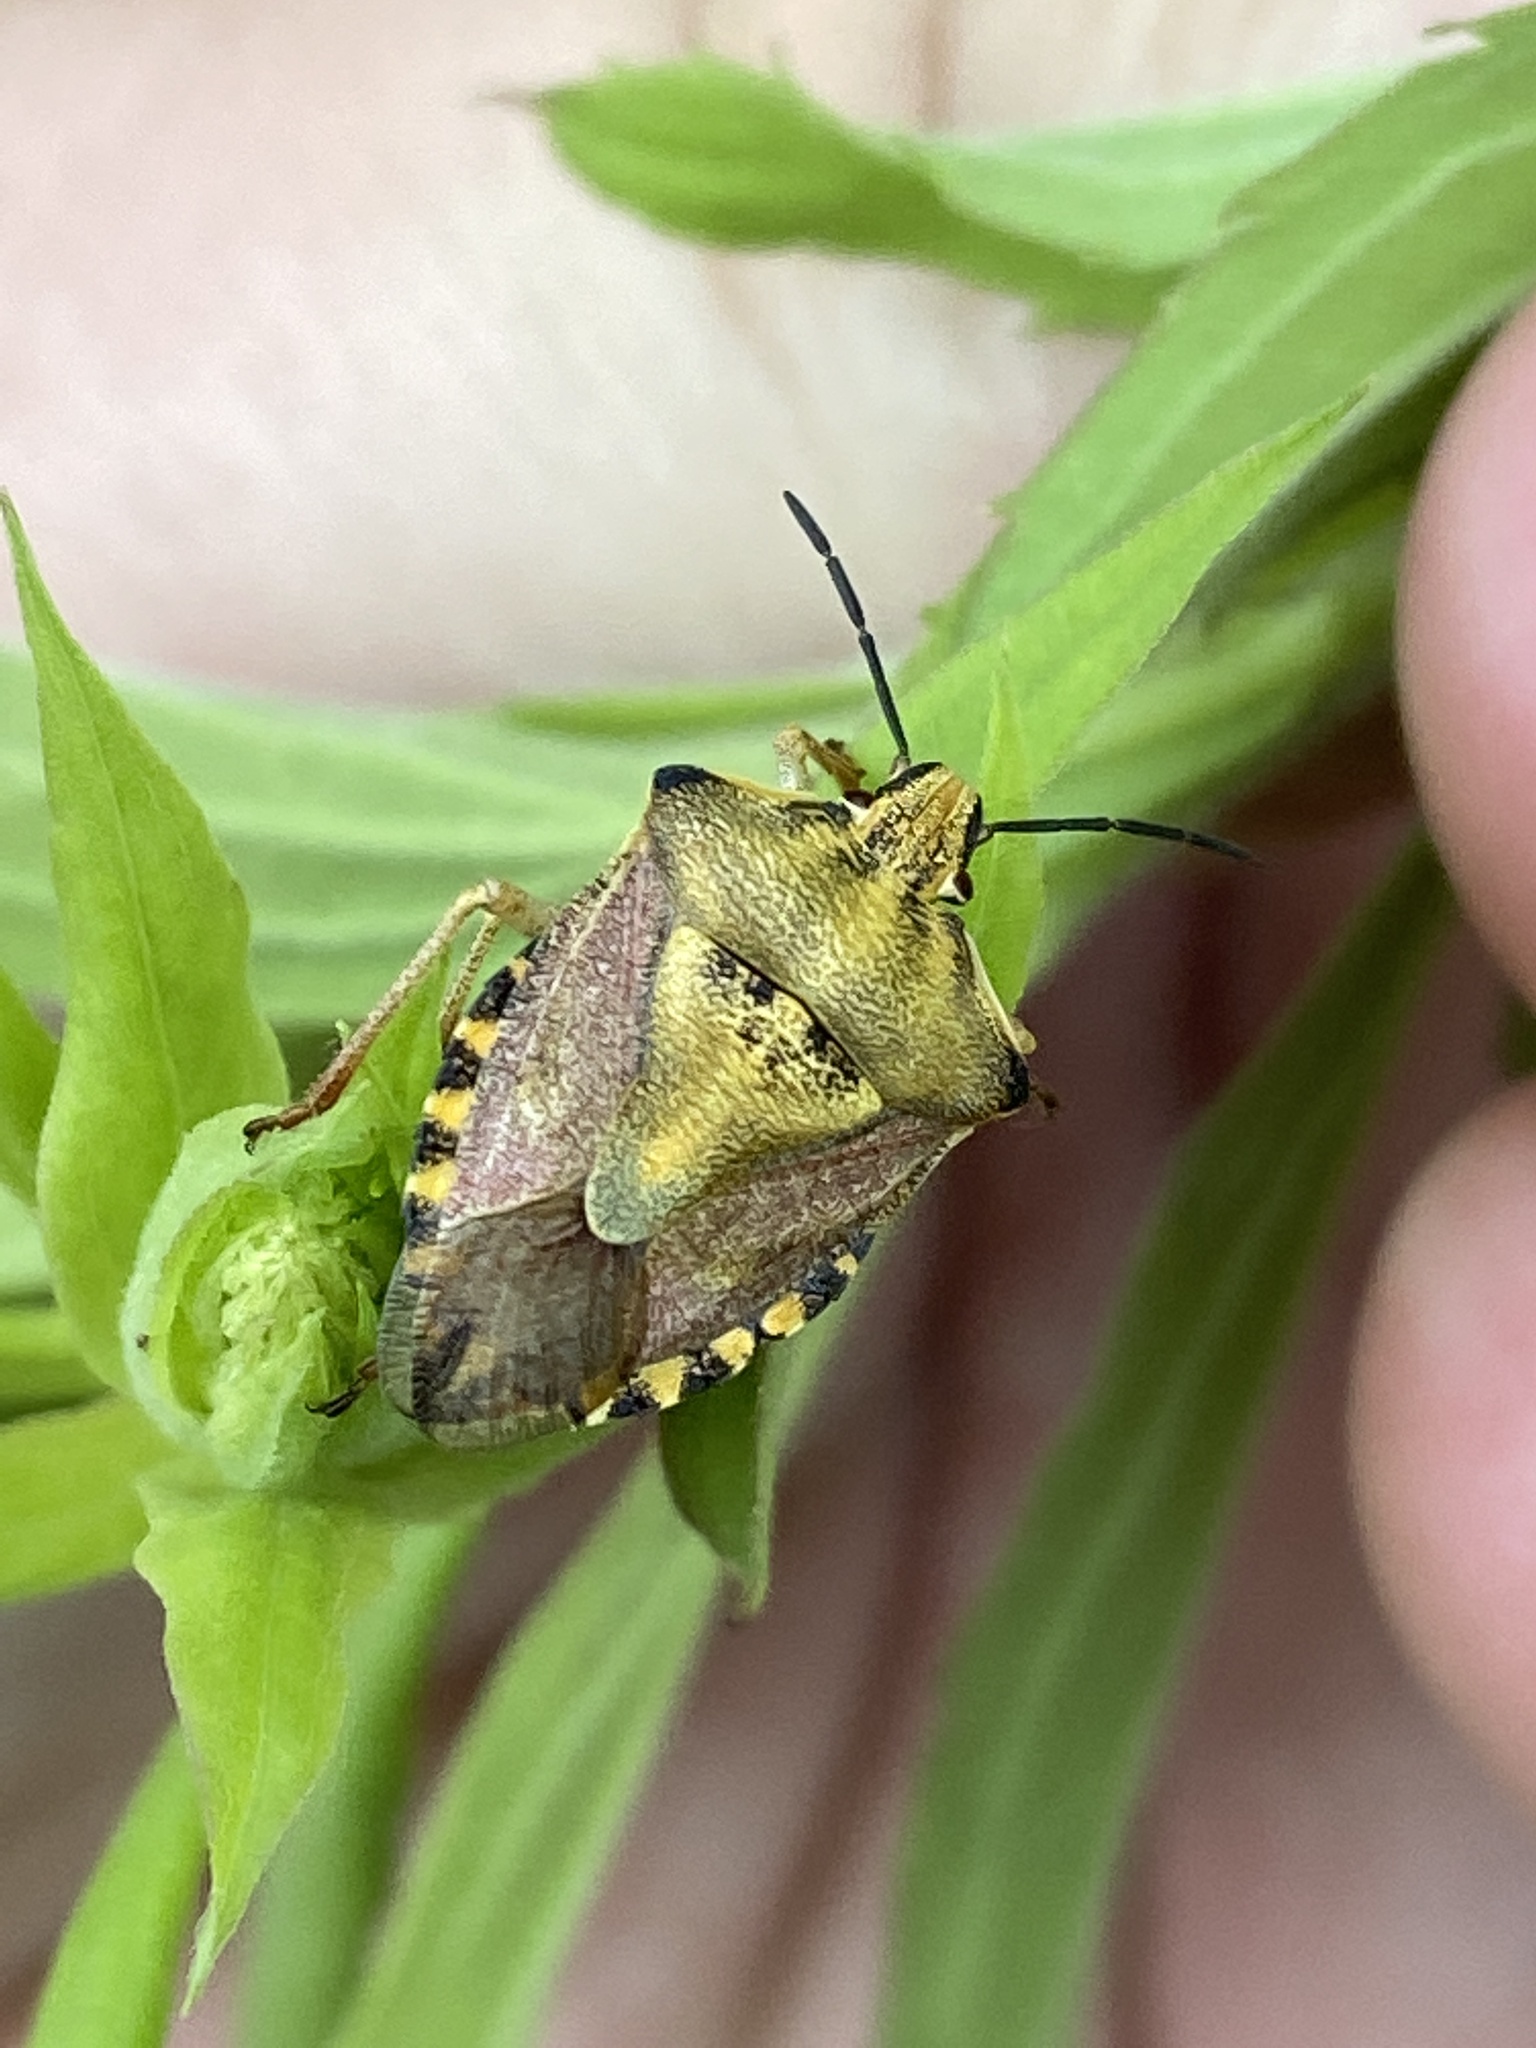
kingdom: Animalia
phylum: Arthropoda
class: Insecta
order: Hemiptera
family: Pentatomidae
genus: Carpocoris
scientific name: Carpocoris purpureipennis
